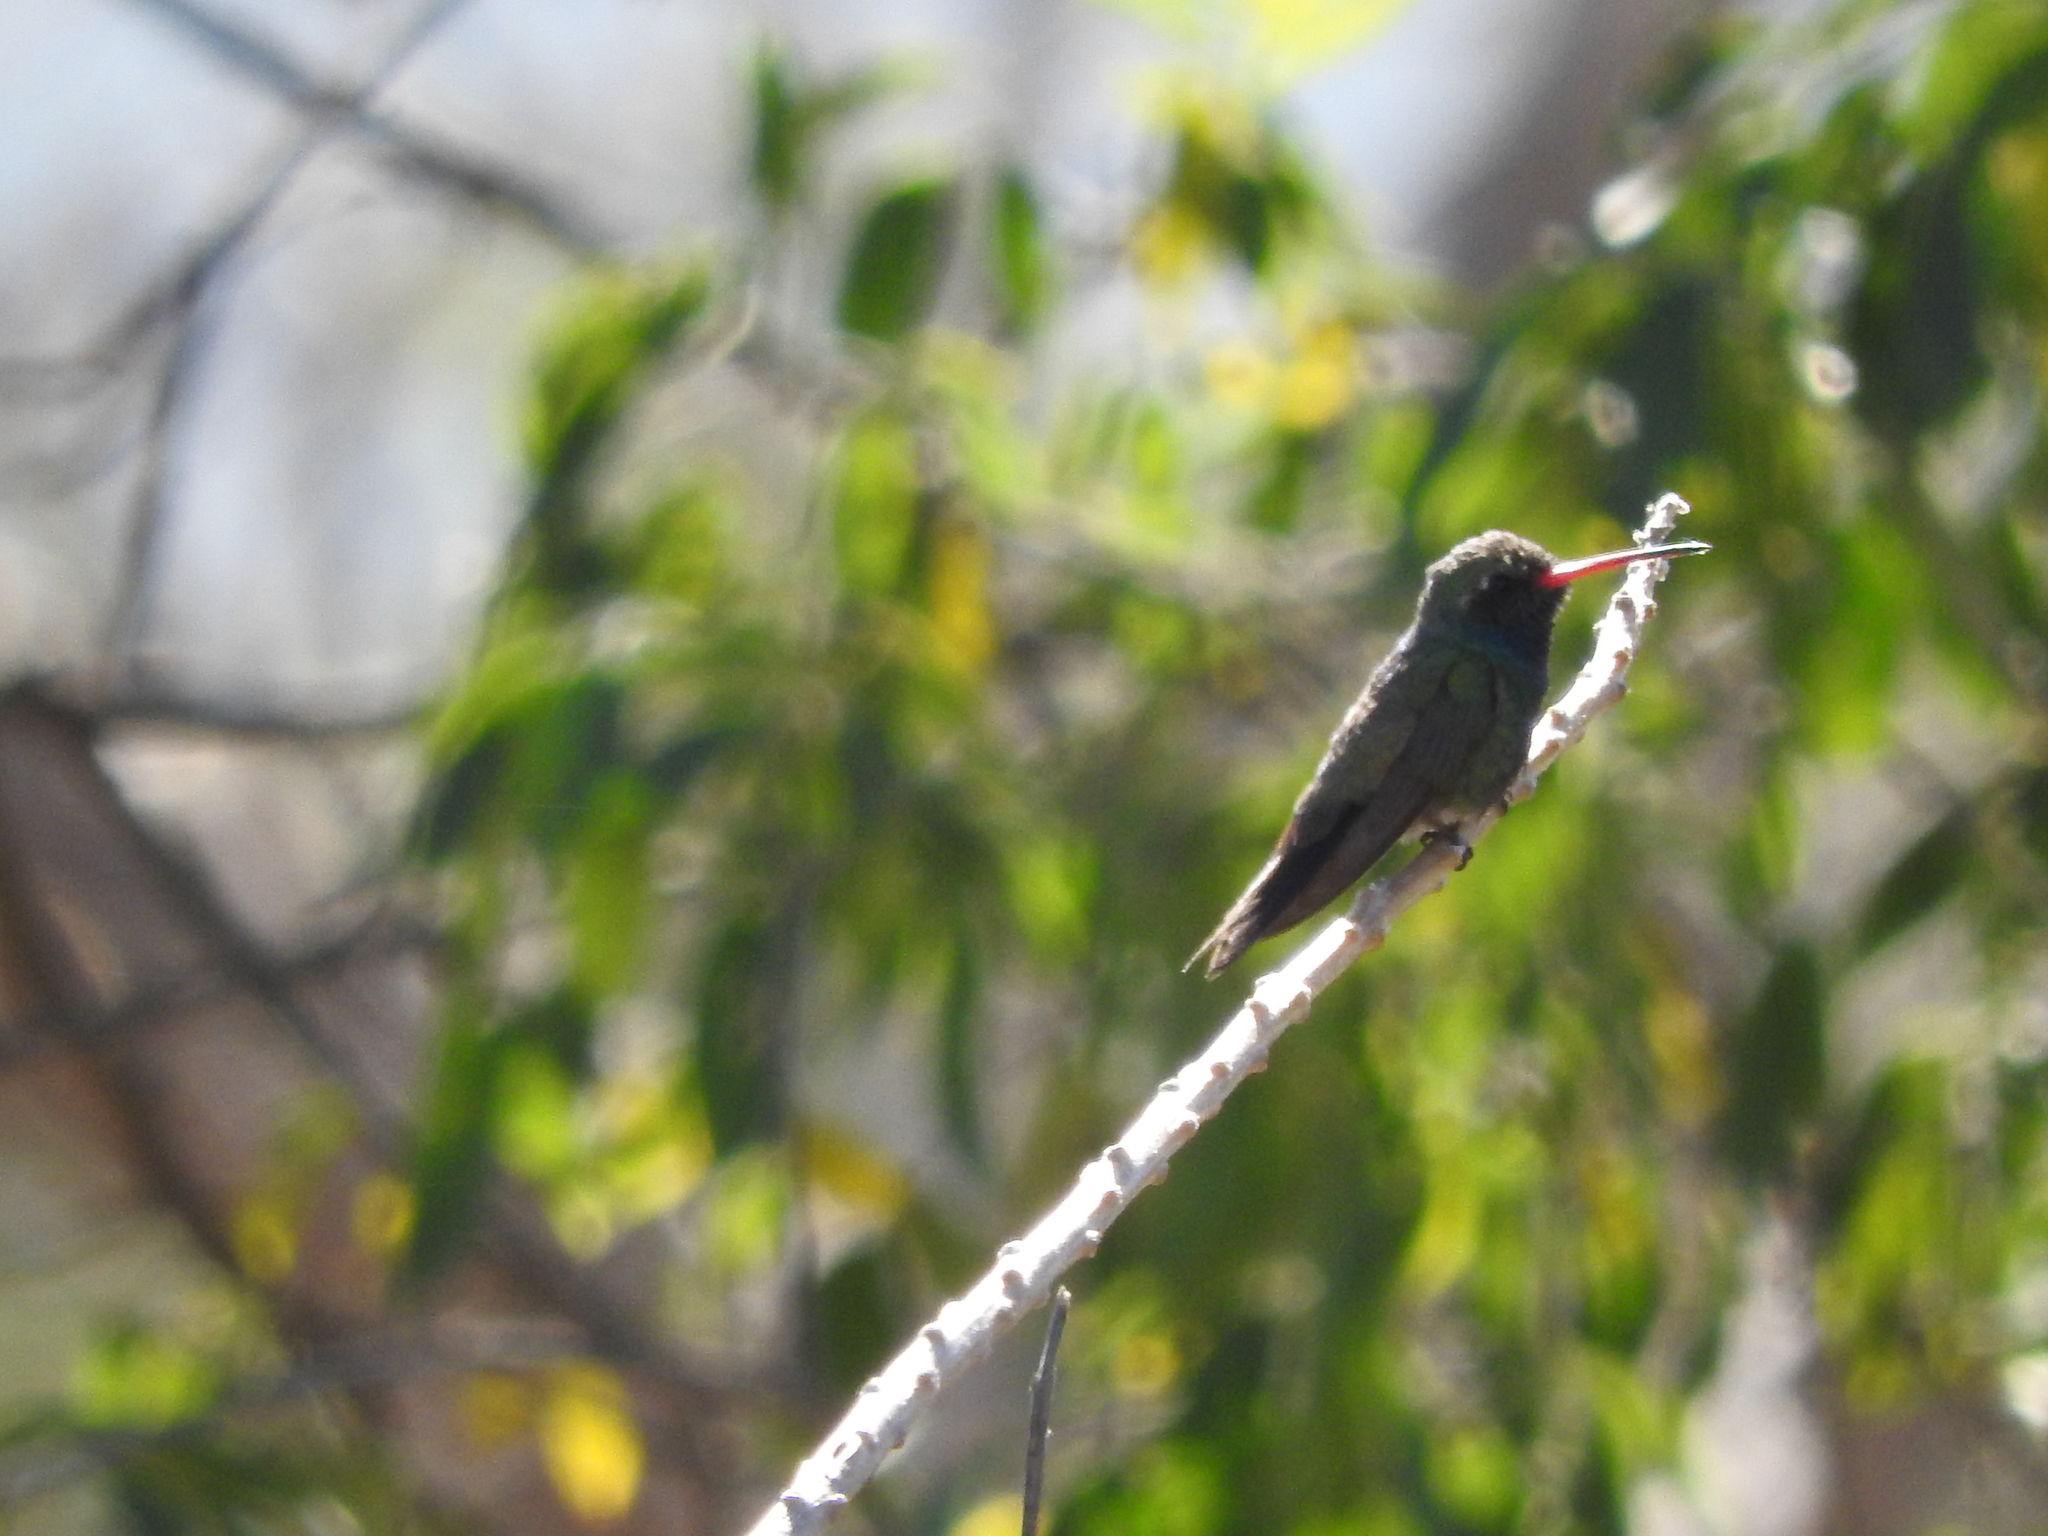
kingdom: Animalia
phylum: Chordata
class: Aves
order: Apodiformes
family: Trochilidae
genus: Cynanthus
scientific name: Cynanthus latirostris
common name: Broad-billed hummingbird
